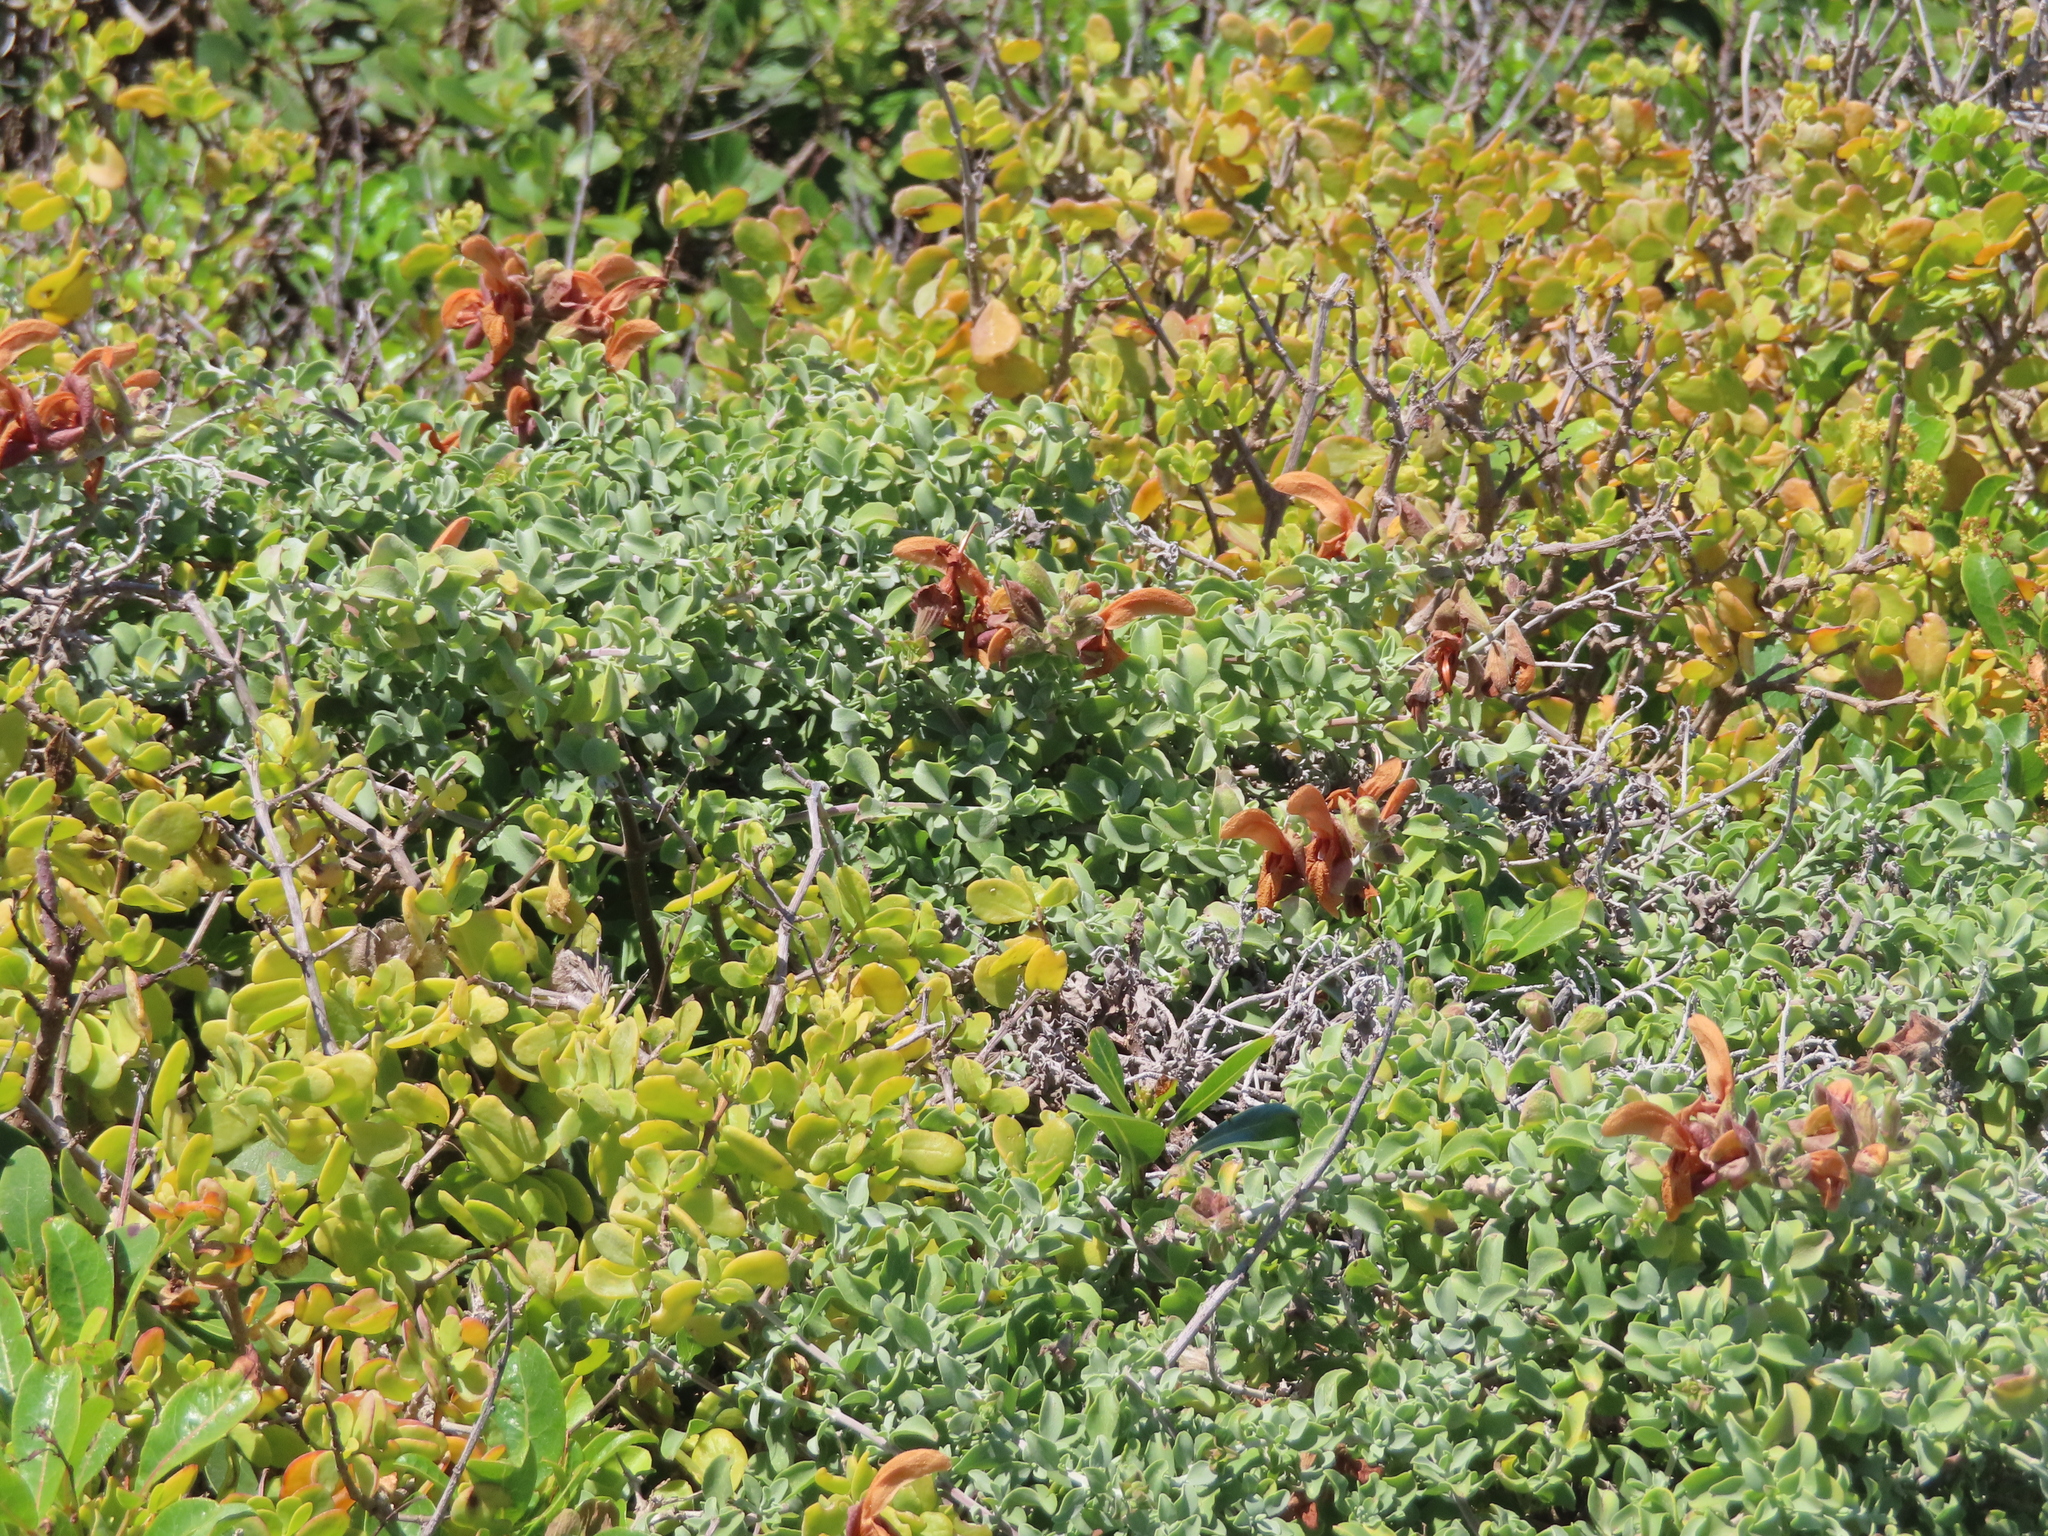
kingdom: Plantae
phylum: Tracheophyta
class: Magnoliopsida
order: Lamiales
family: Lamiaceae
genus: Salvia
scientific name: Salvia aurea
